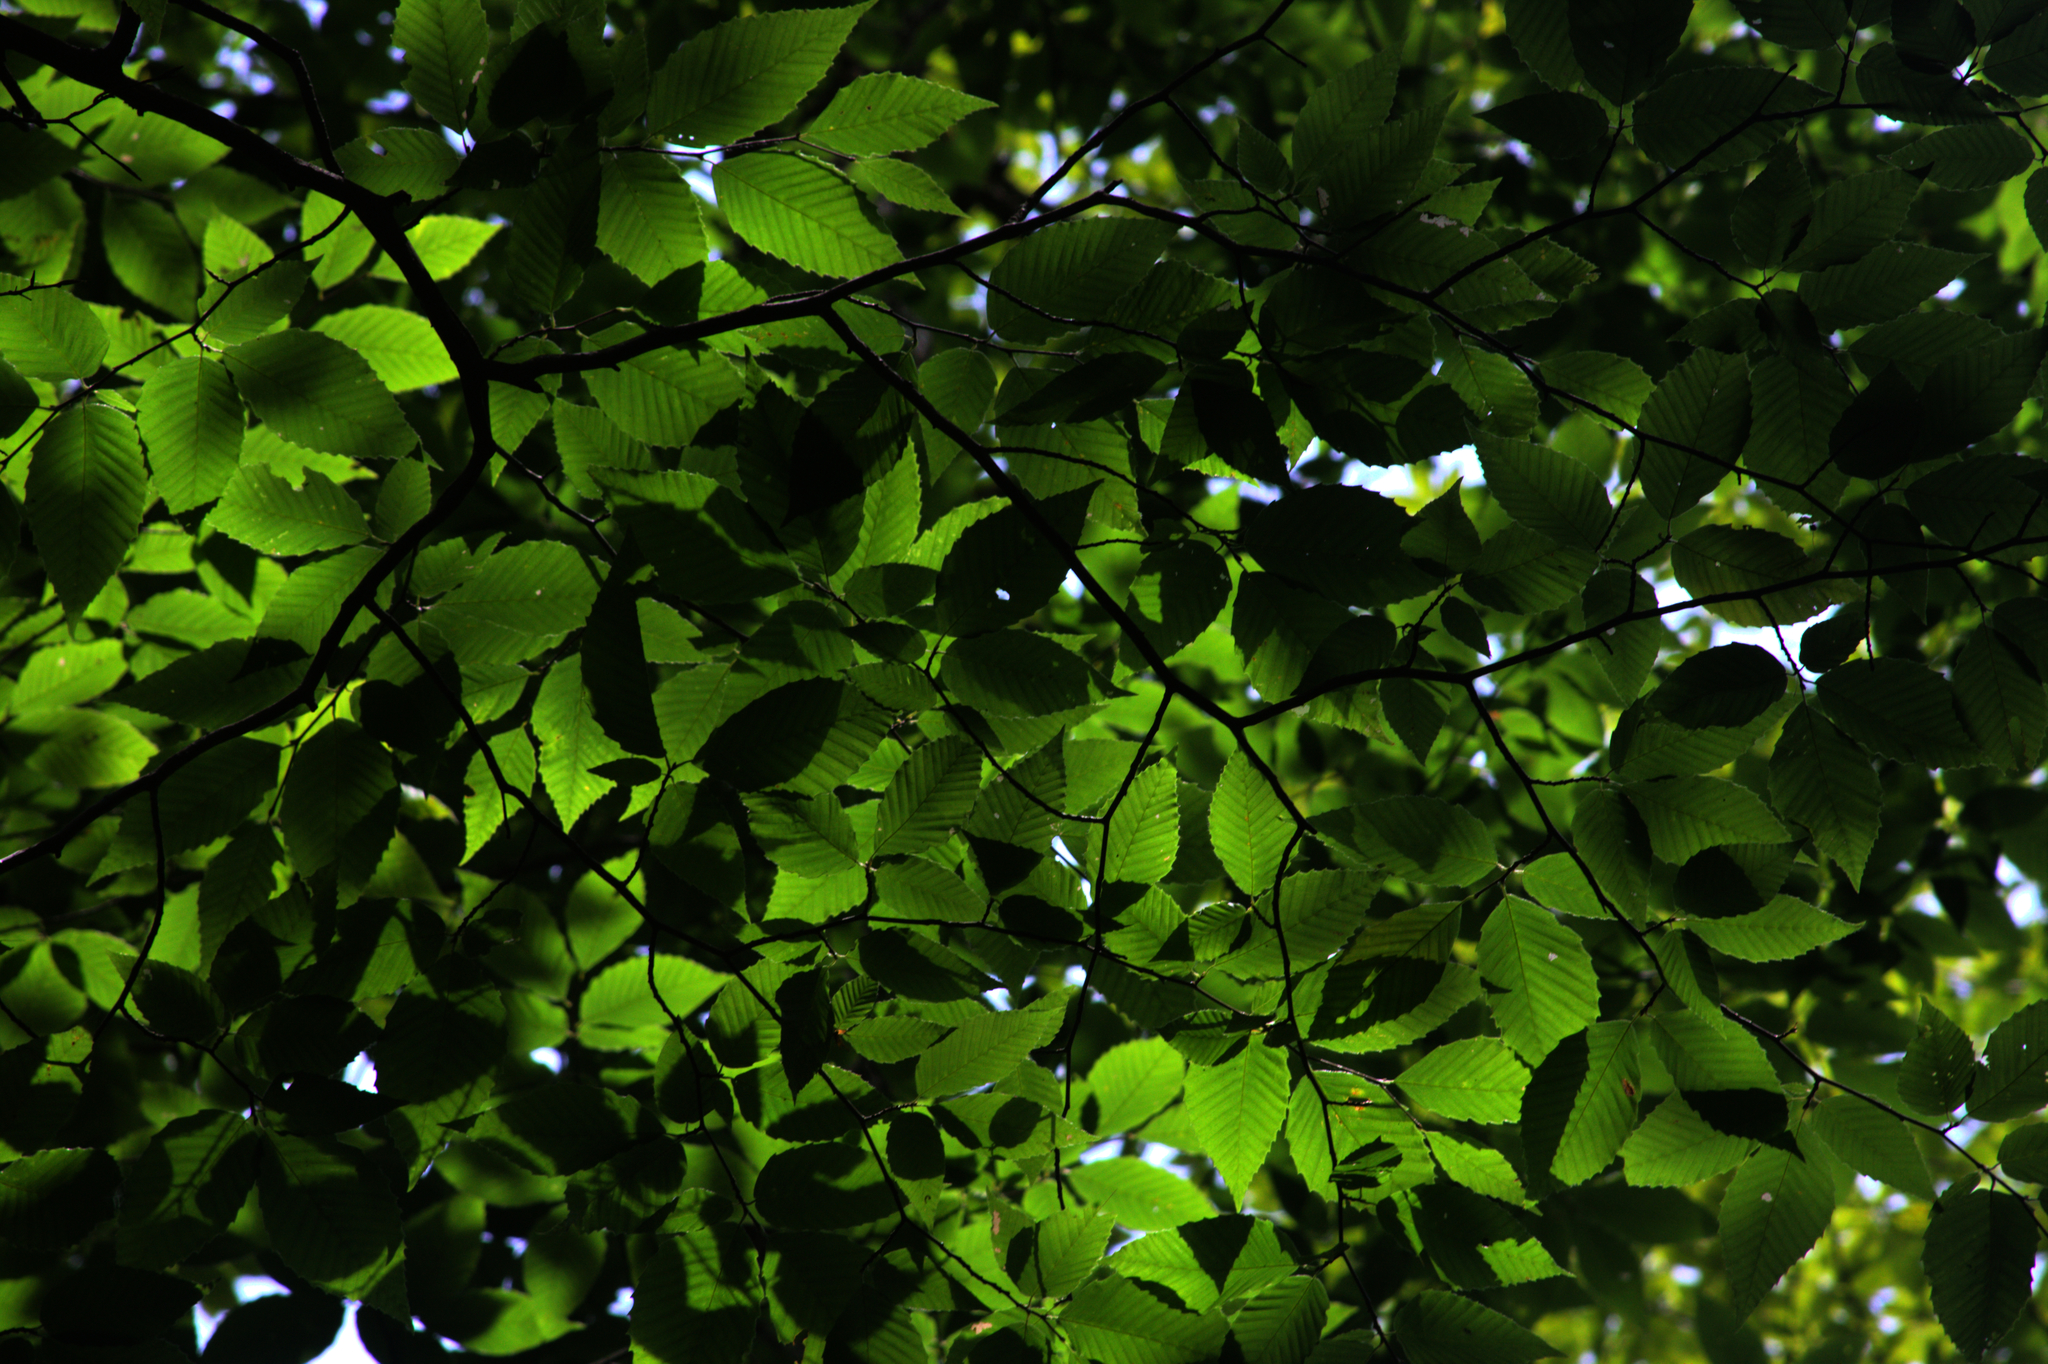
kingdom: Plantae
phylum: Tracheophyta
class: Magnoliopsida
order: Fagales
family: Fagaceae
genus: Fagus
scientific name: Fagus grandifolia
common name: American beech
